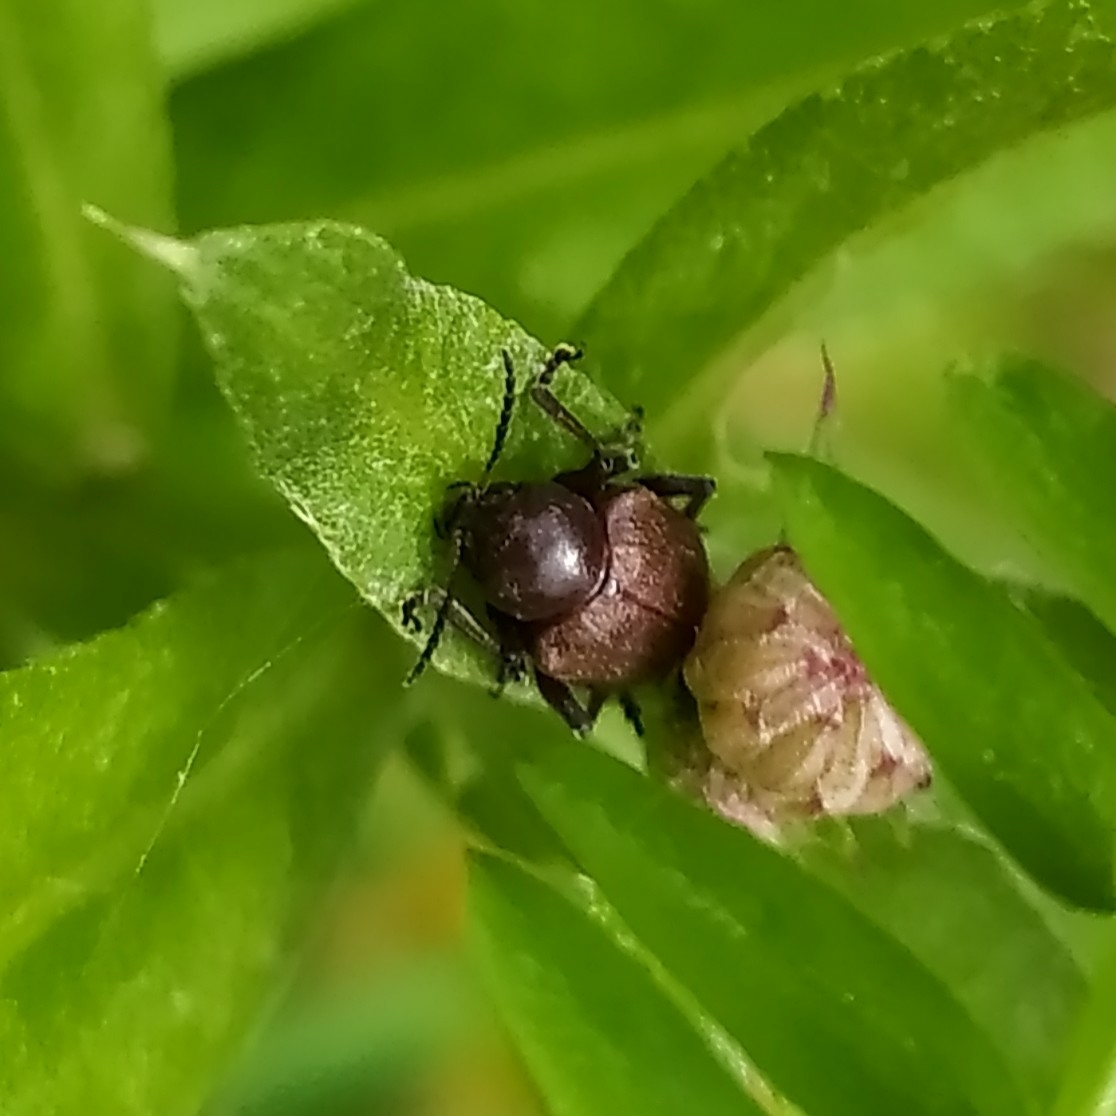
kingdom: Animalia
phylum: Arthropoda
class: Insecta
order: Coleoptera
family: Chrysomelidae
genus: Bromius
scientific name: Bromius obscurus
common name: Western grape rootworm
